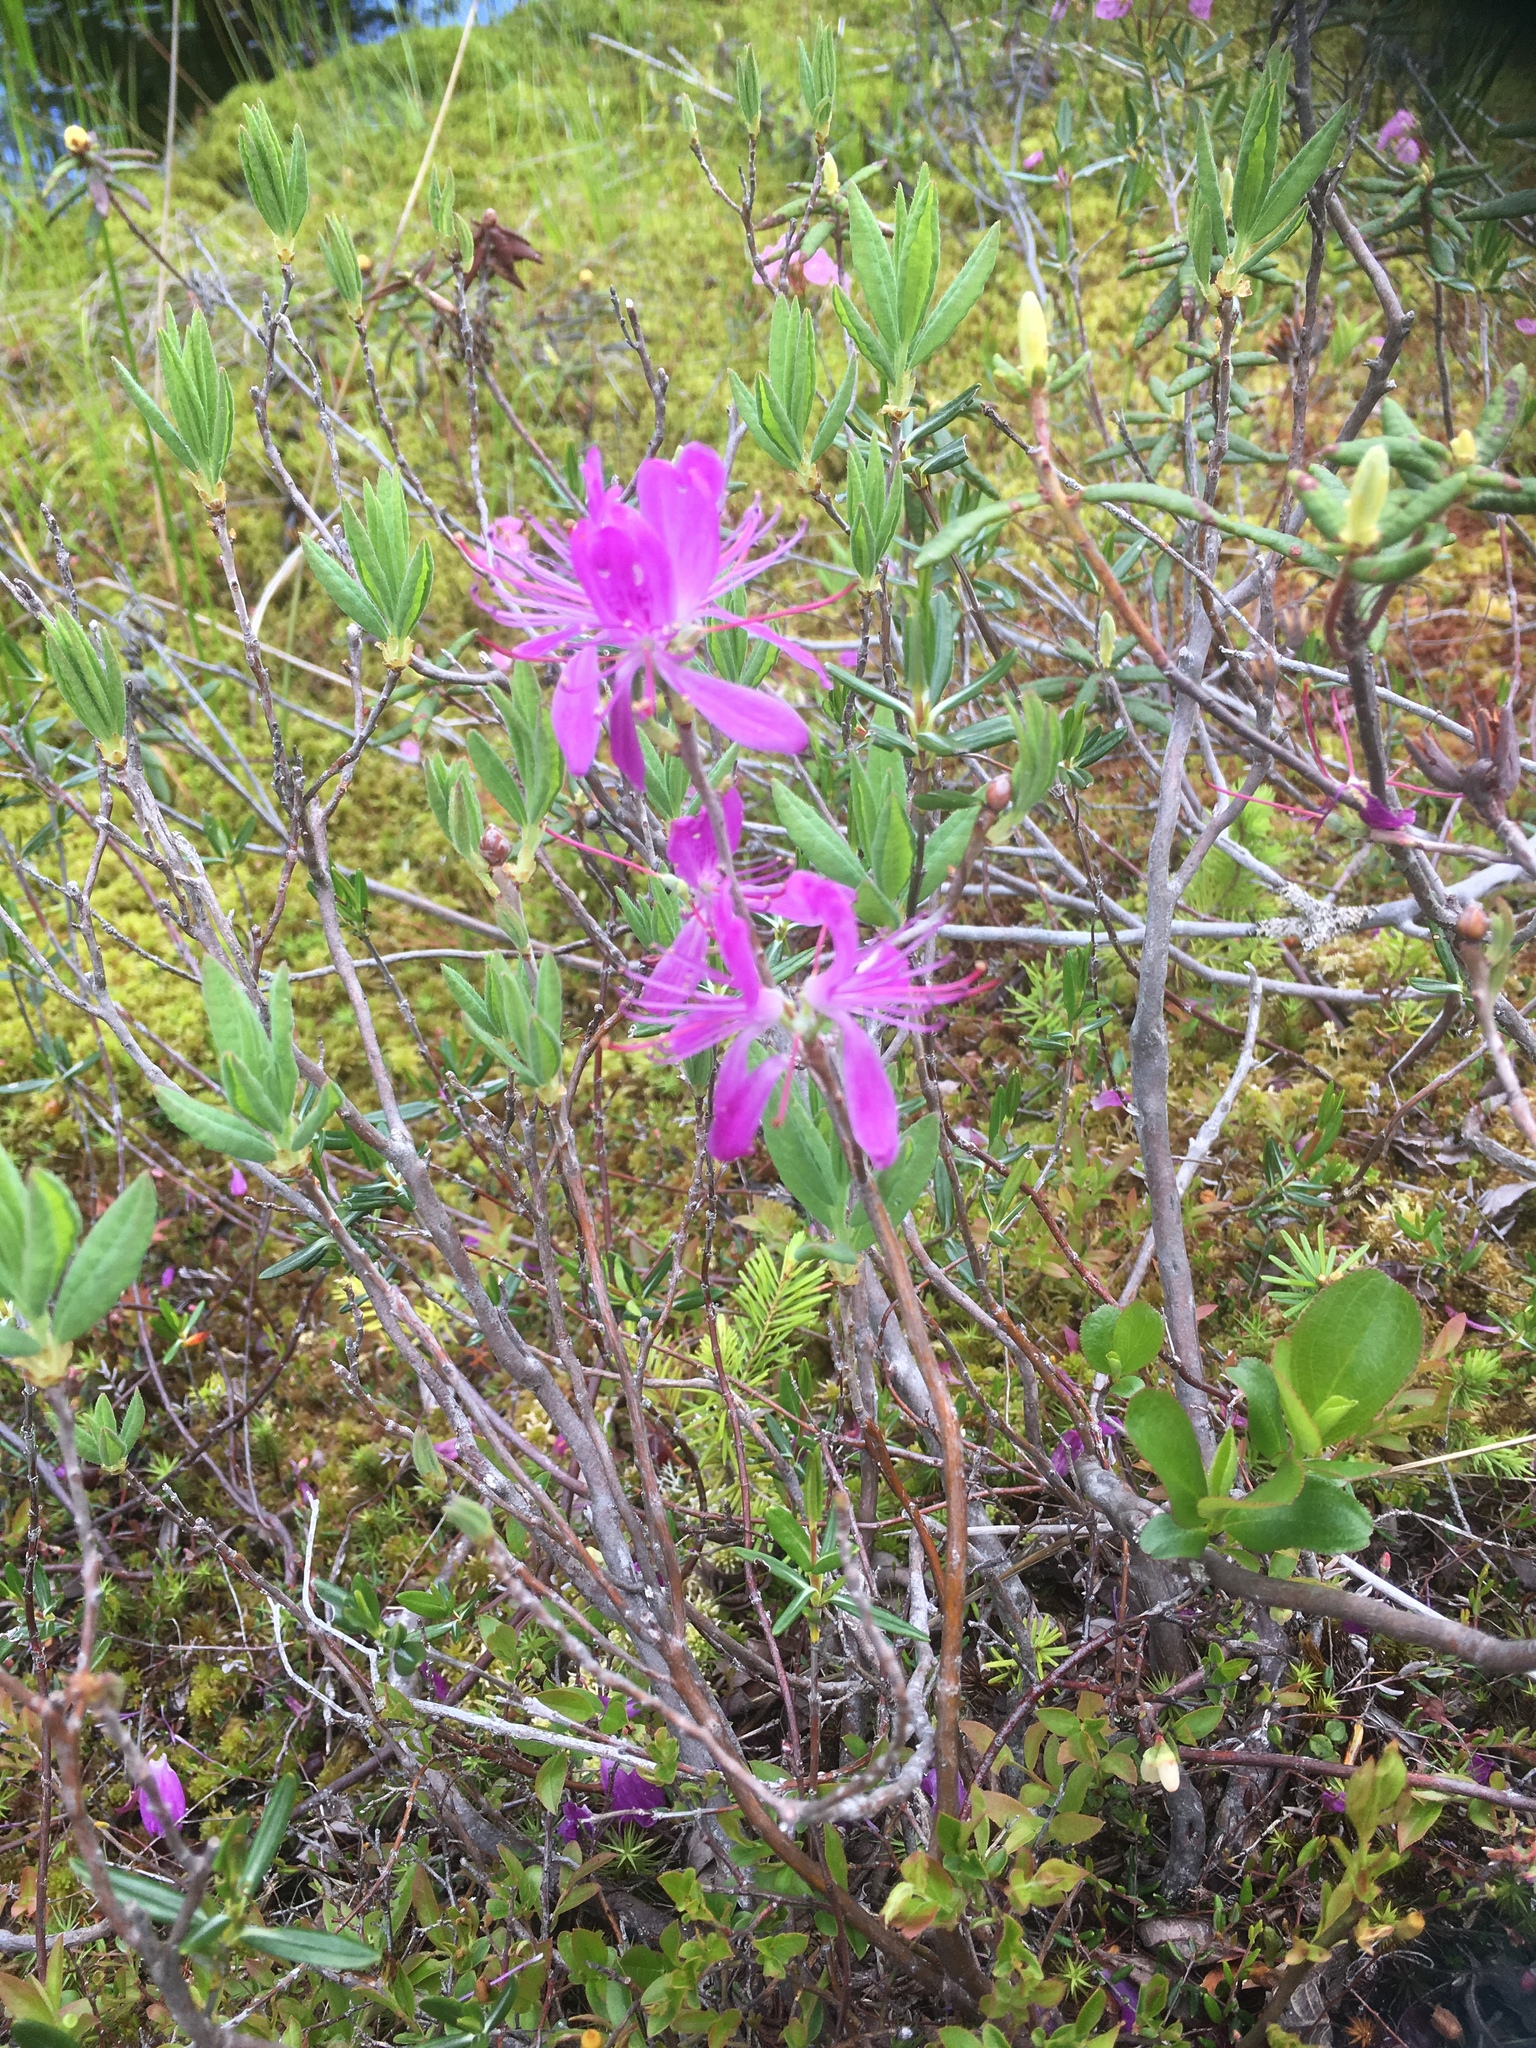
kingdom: Plantae
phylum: Tracheophyta
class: Magnoliopsida
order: Ericales
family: Ericaceae
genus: Rhododendron
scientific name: Rhododendron canadense
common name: Rhodora
